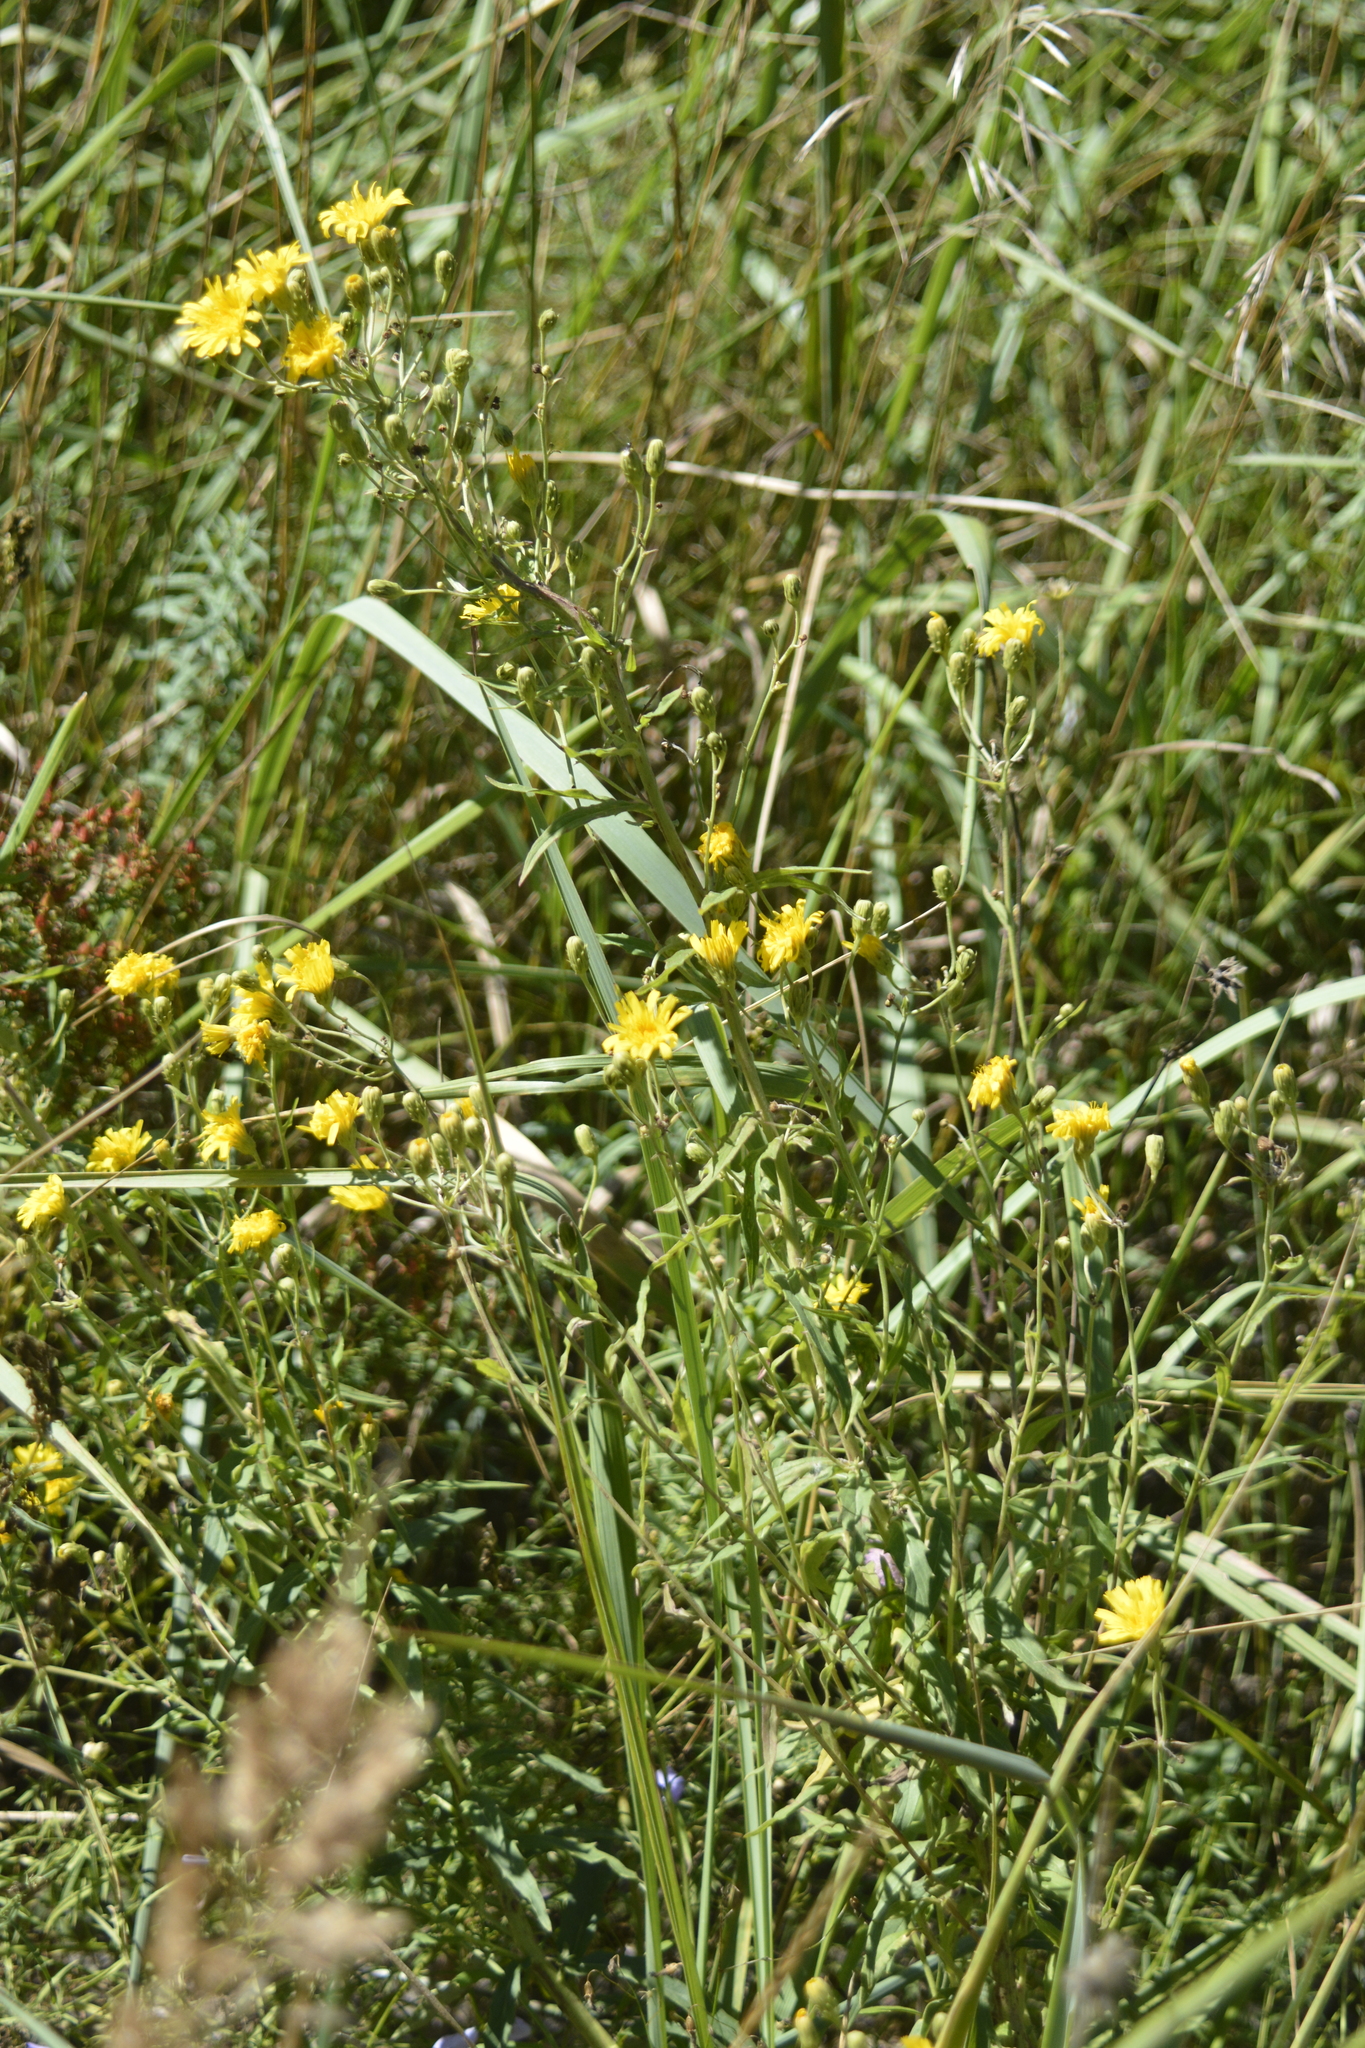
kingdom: Plantae
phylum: Tracheophyta
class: Magnoliopsida
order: Asterales
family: Asteraceae
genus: Hieracium
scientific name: Hieracium umbellatum
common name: Northern hawkweed
